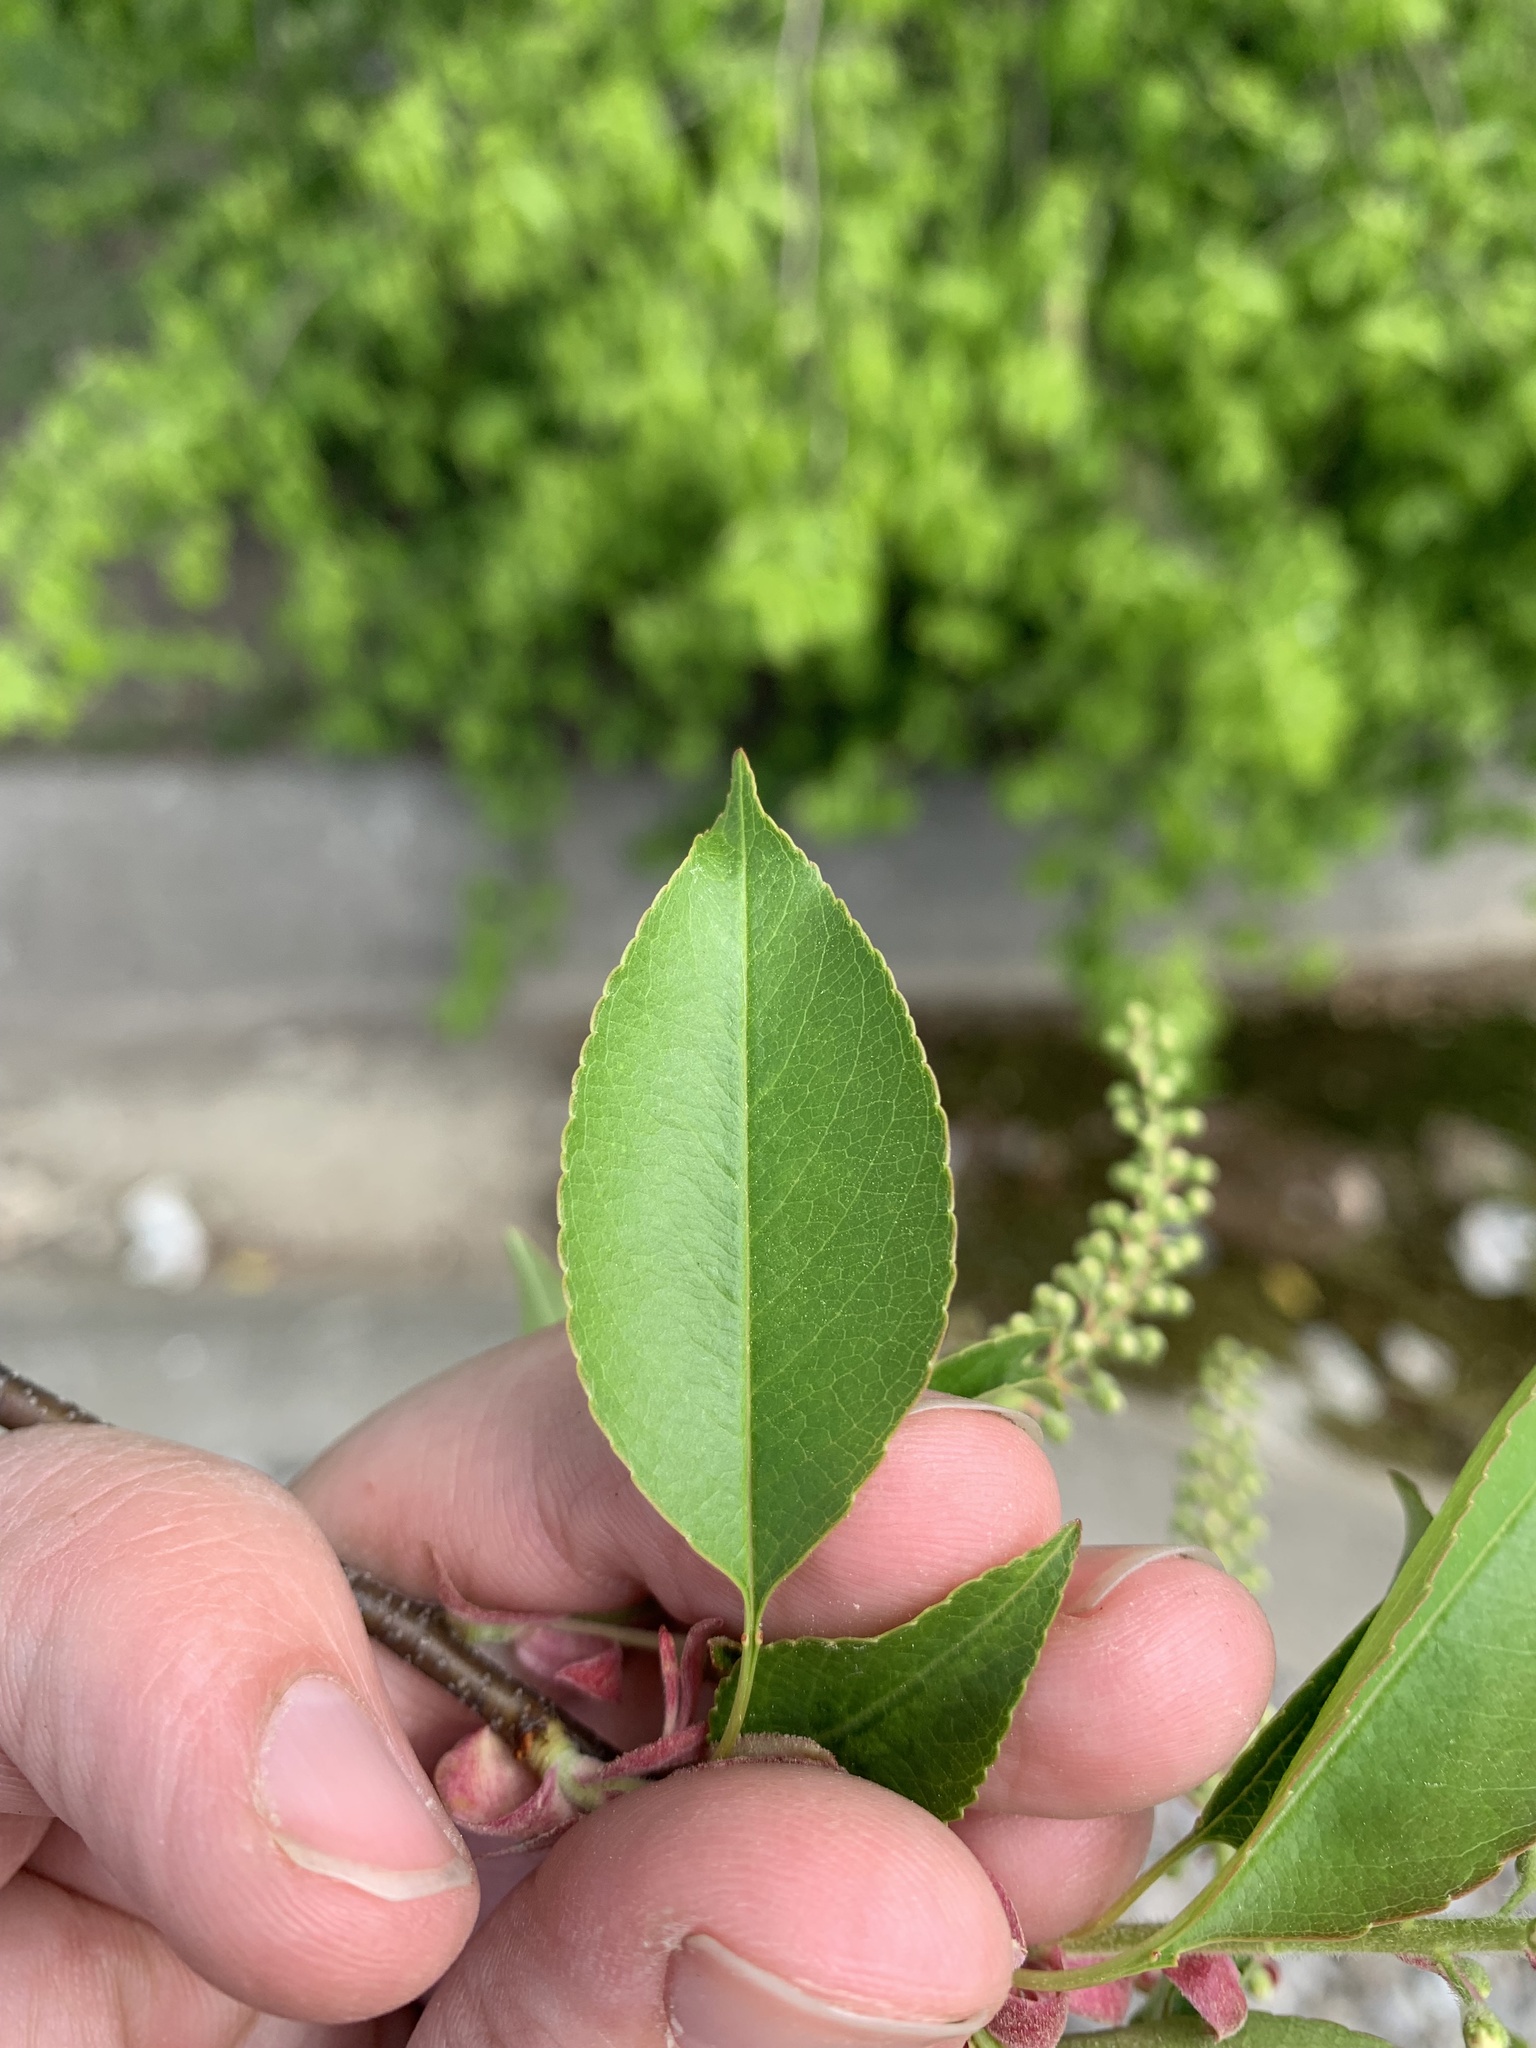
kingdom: Plantae
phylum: Tracheophyta
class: Magnoliopsida
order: Rosales
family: Rosaceae
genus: Prunus
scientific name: Prunus serotina
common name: Black cherry
